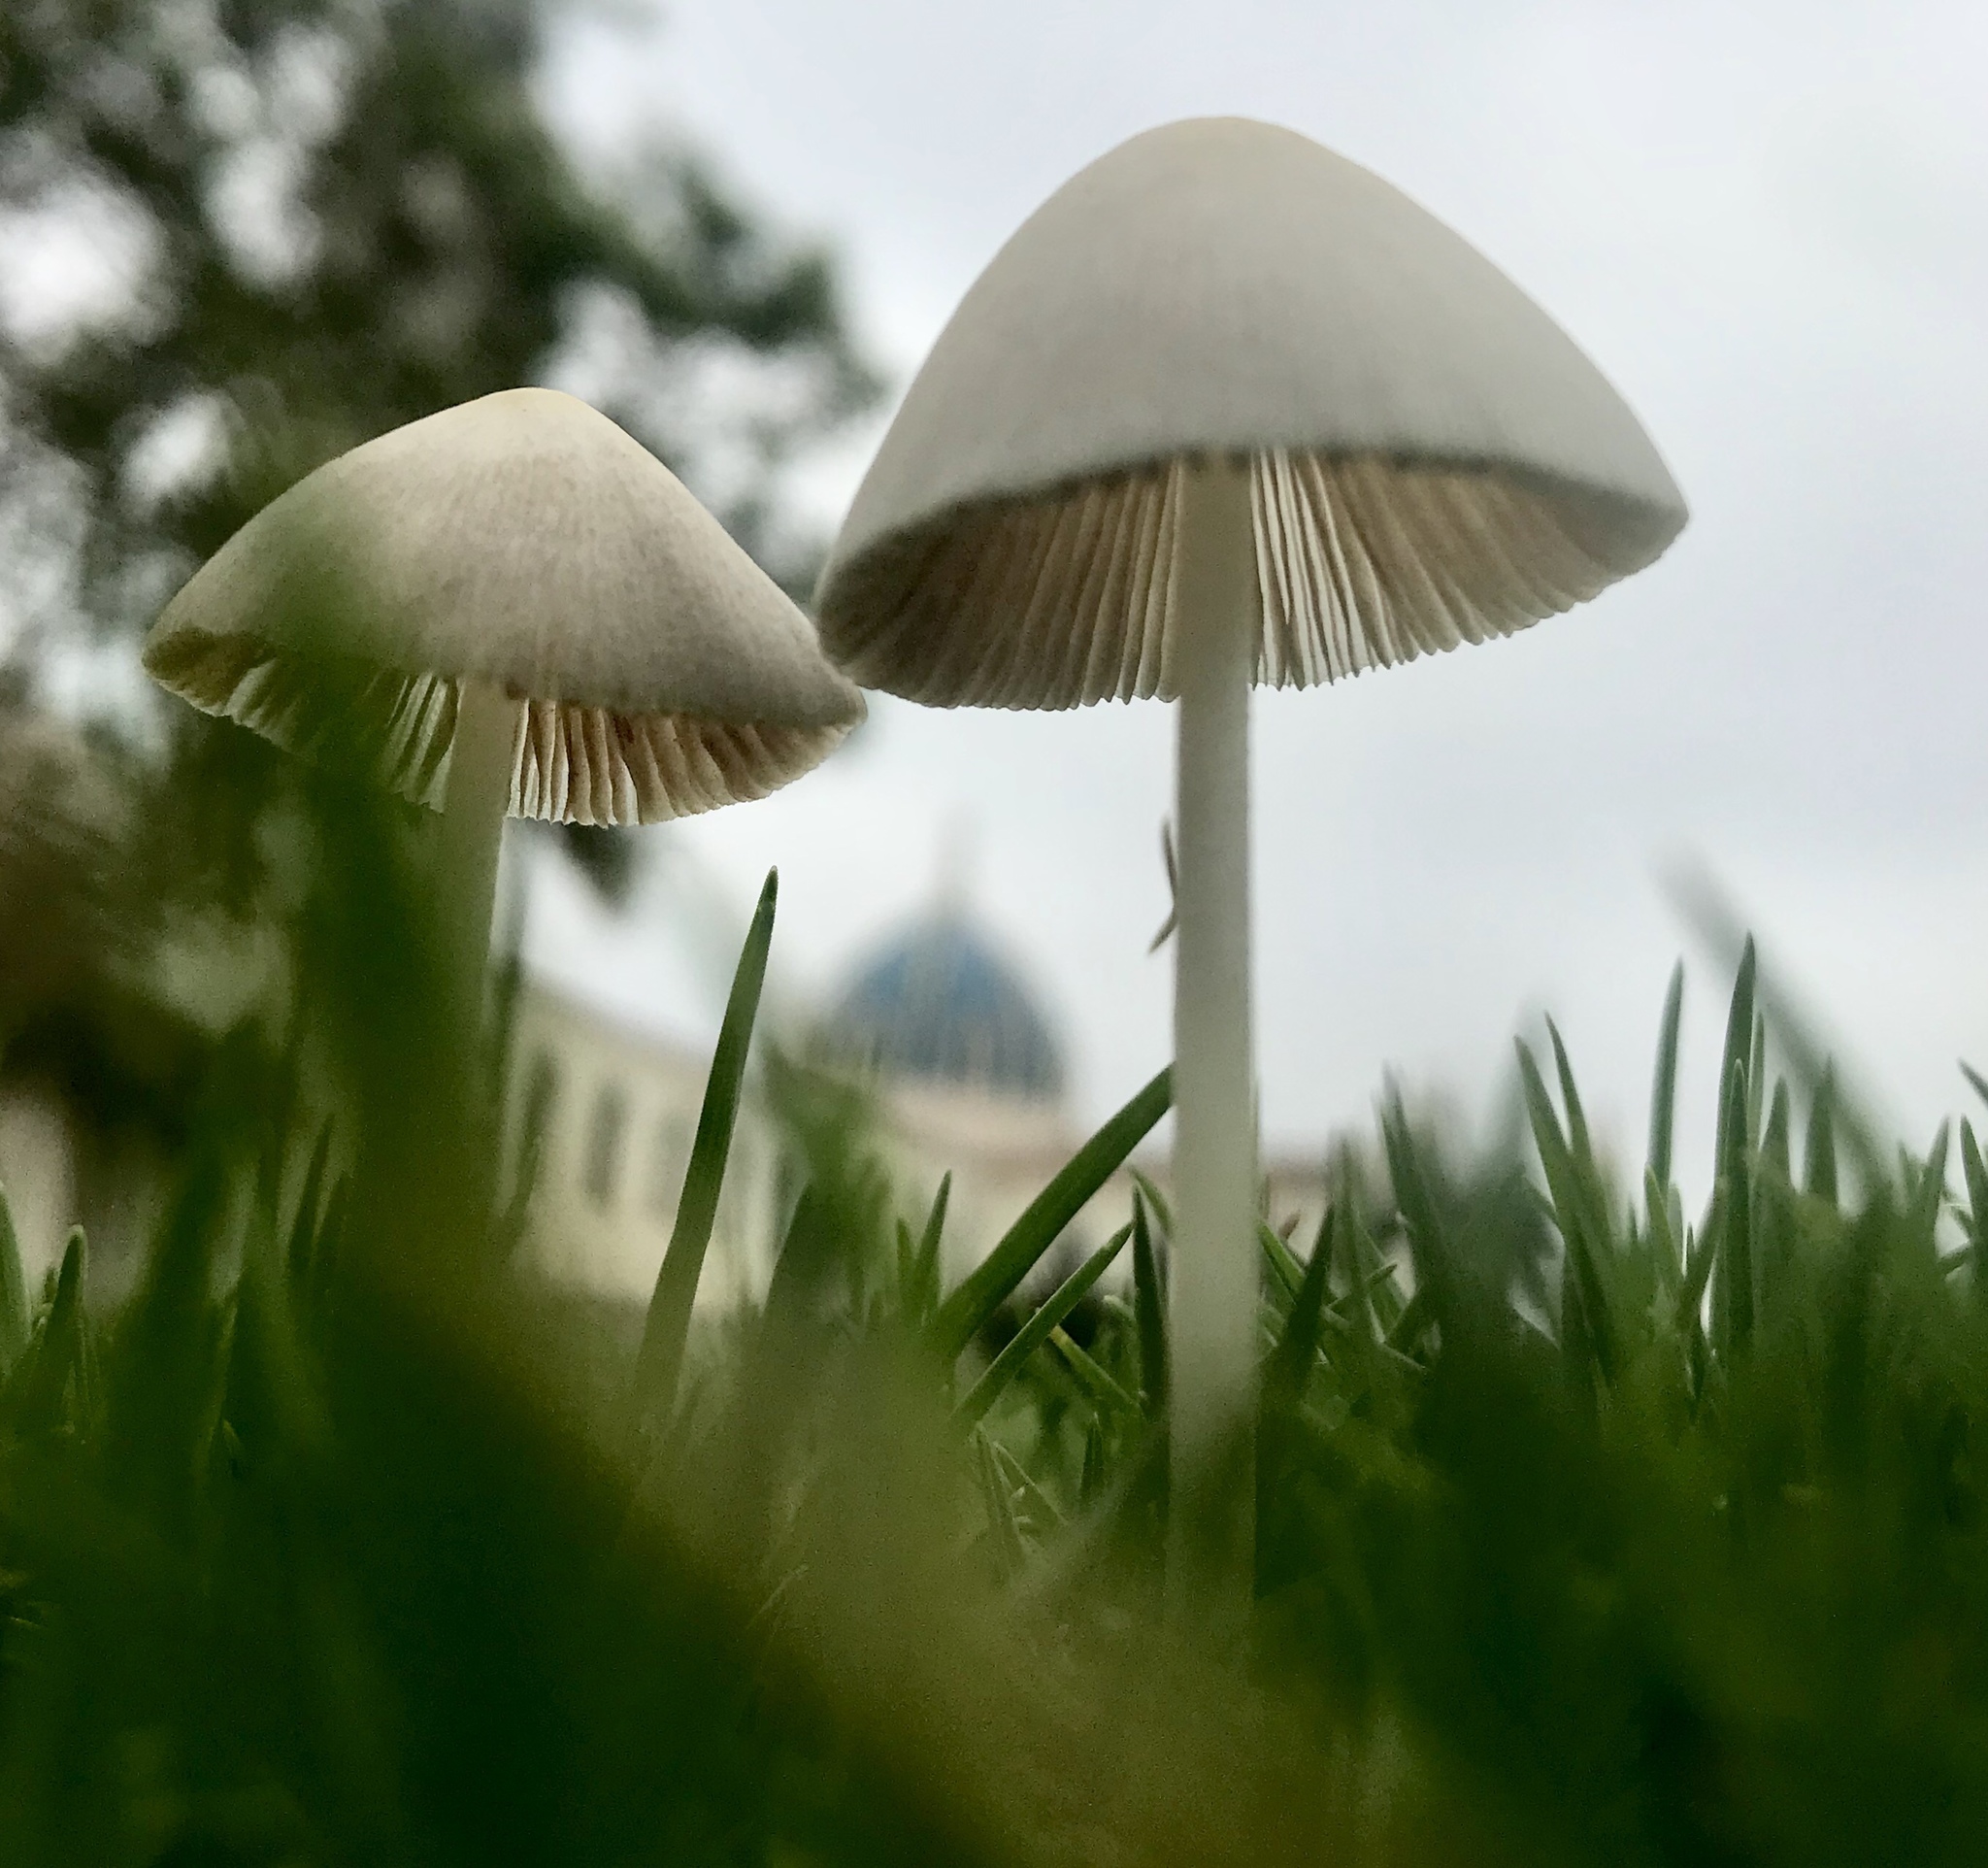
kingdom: Fungi
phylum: Basidiomycota
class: Agaricomycetes
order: Agaricales
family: Bolbitiaceae
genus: Conocybe
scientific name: Conocybe apala
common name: Milky conecap
